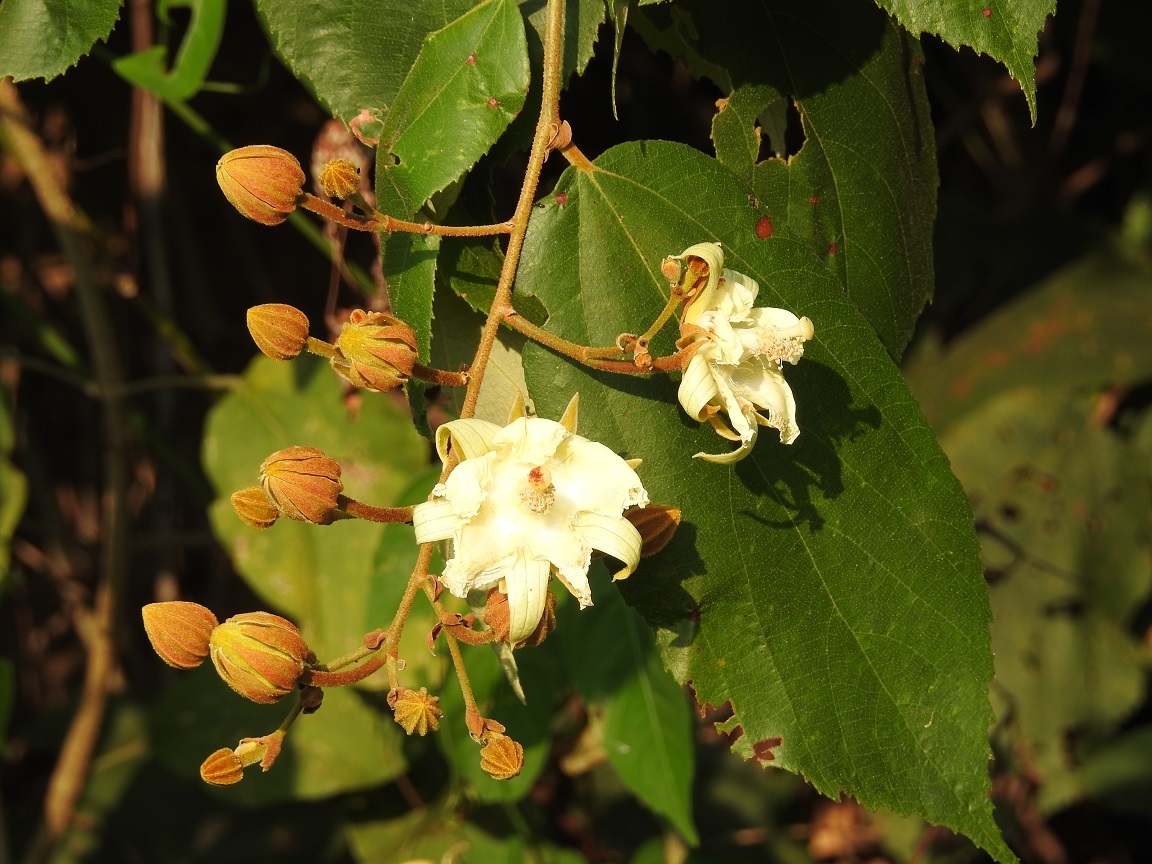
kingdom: Plantae
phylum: Tracheophyta
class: Magnoliopsida
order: Malvales
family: Malvaceae
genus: Luehea
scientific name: Luehea speciosa
